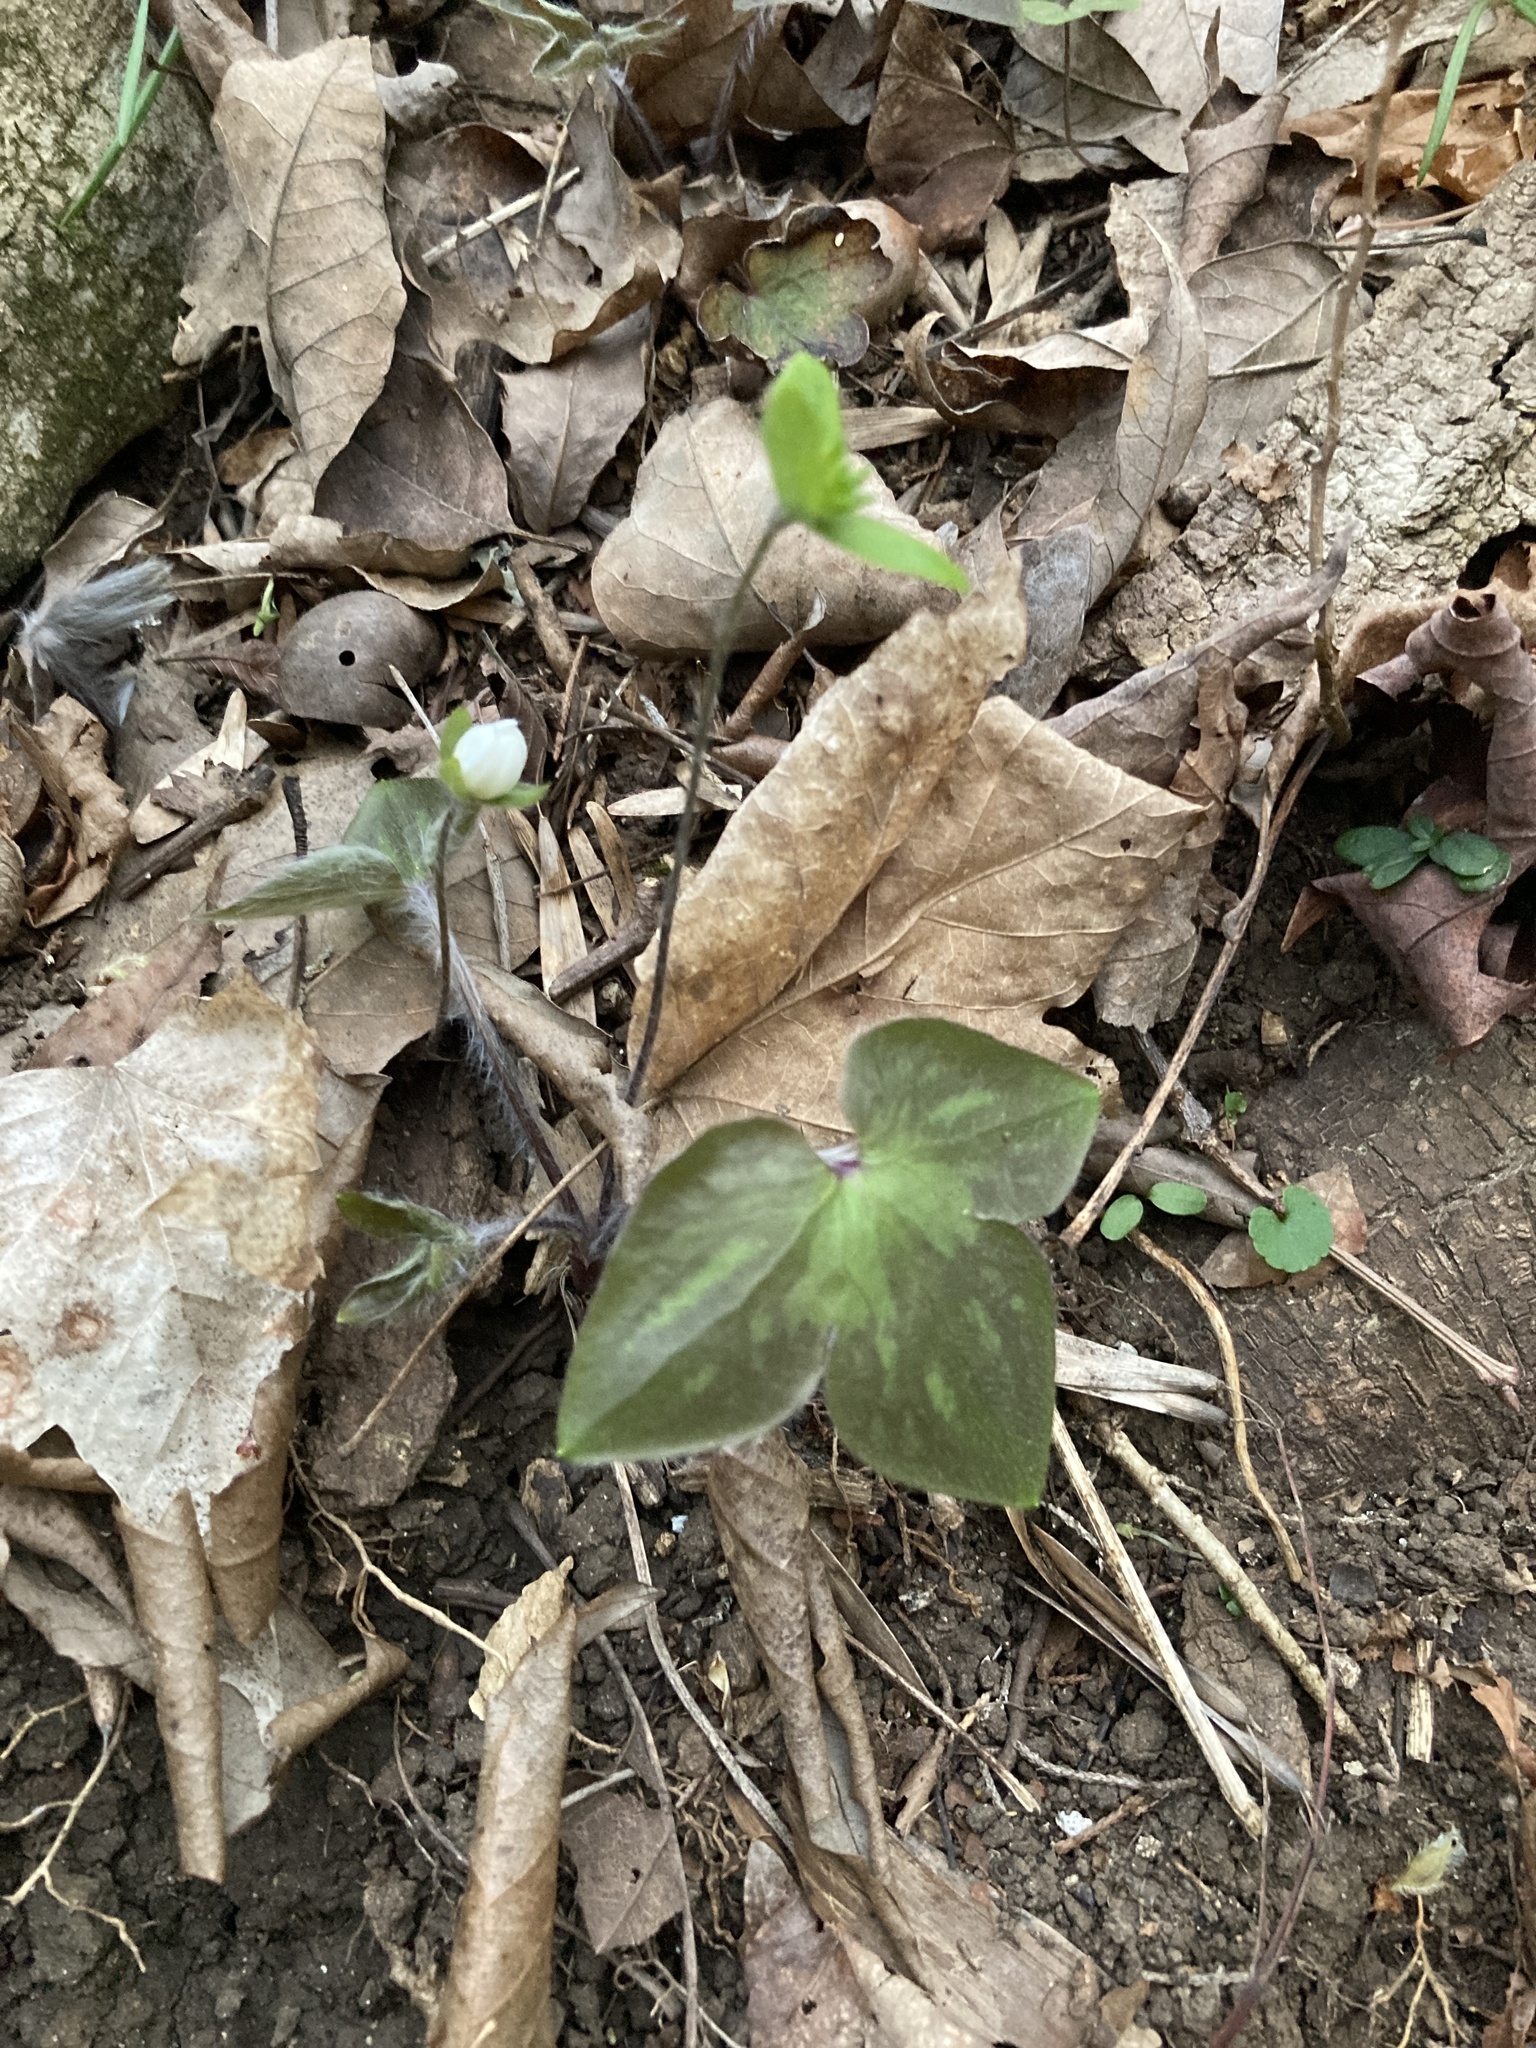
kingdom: Plantae
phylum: Tracheophyta
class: Magnoliopsida
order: Ranunculales
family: Ranunculaceae
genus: Hepatica
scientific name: Hepatica acutiloba
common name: Sharp-lobed hepatica
